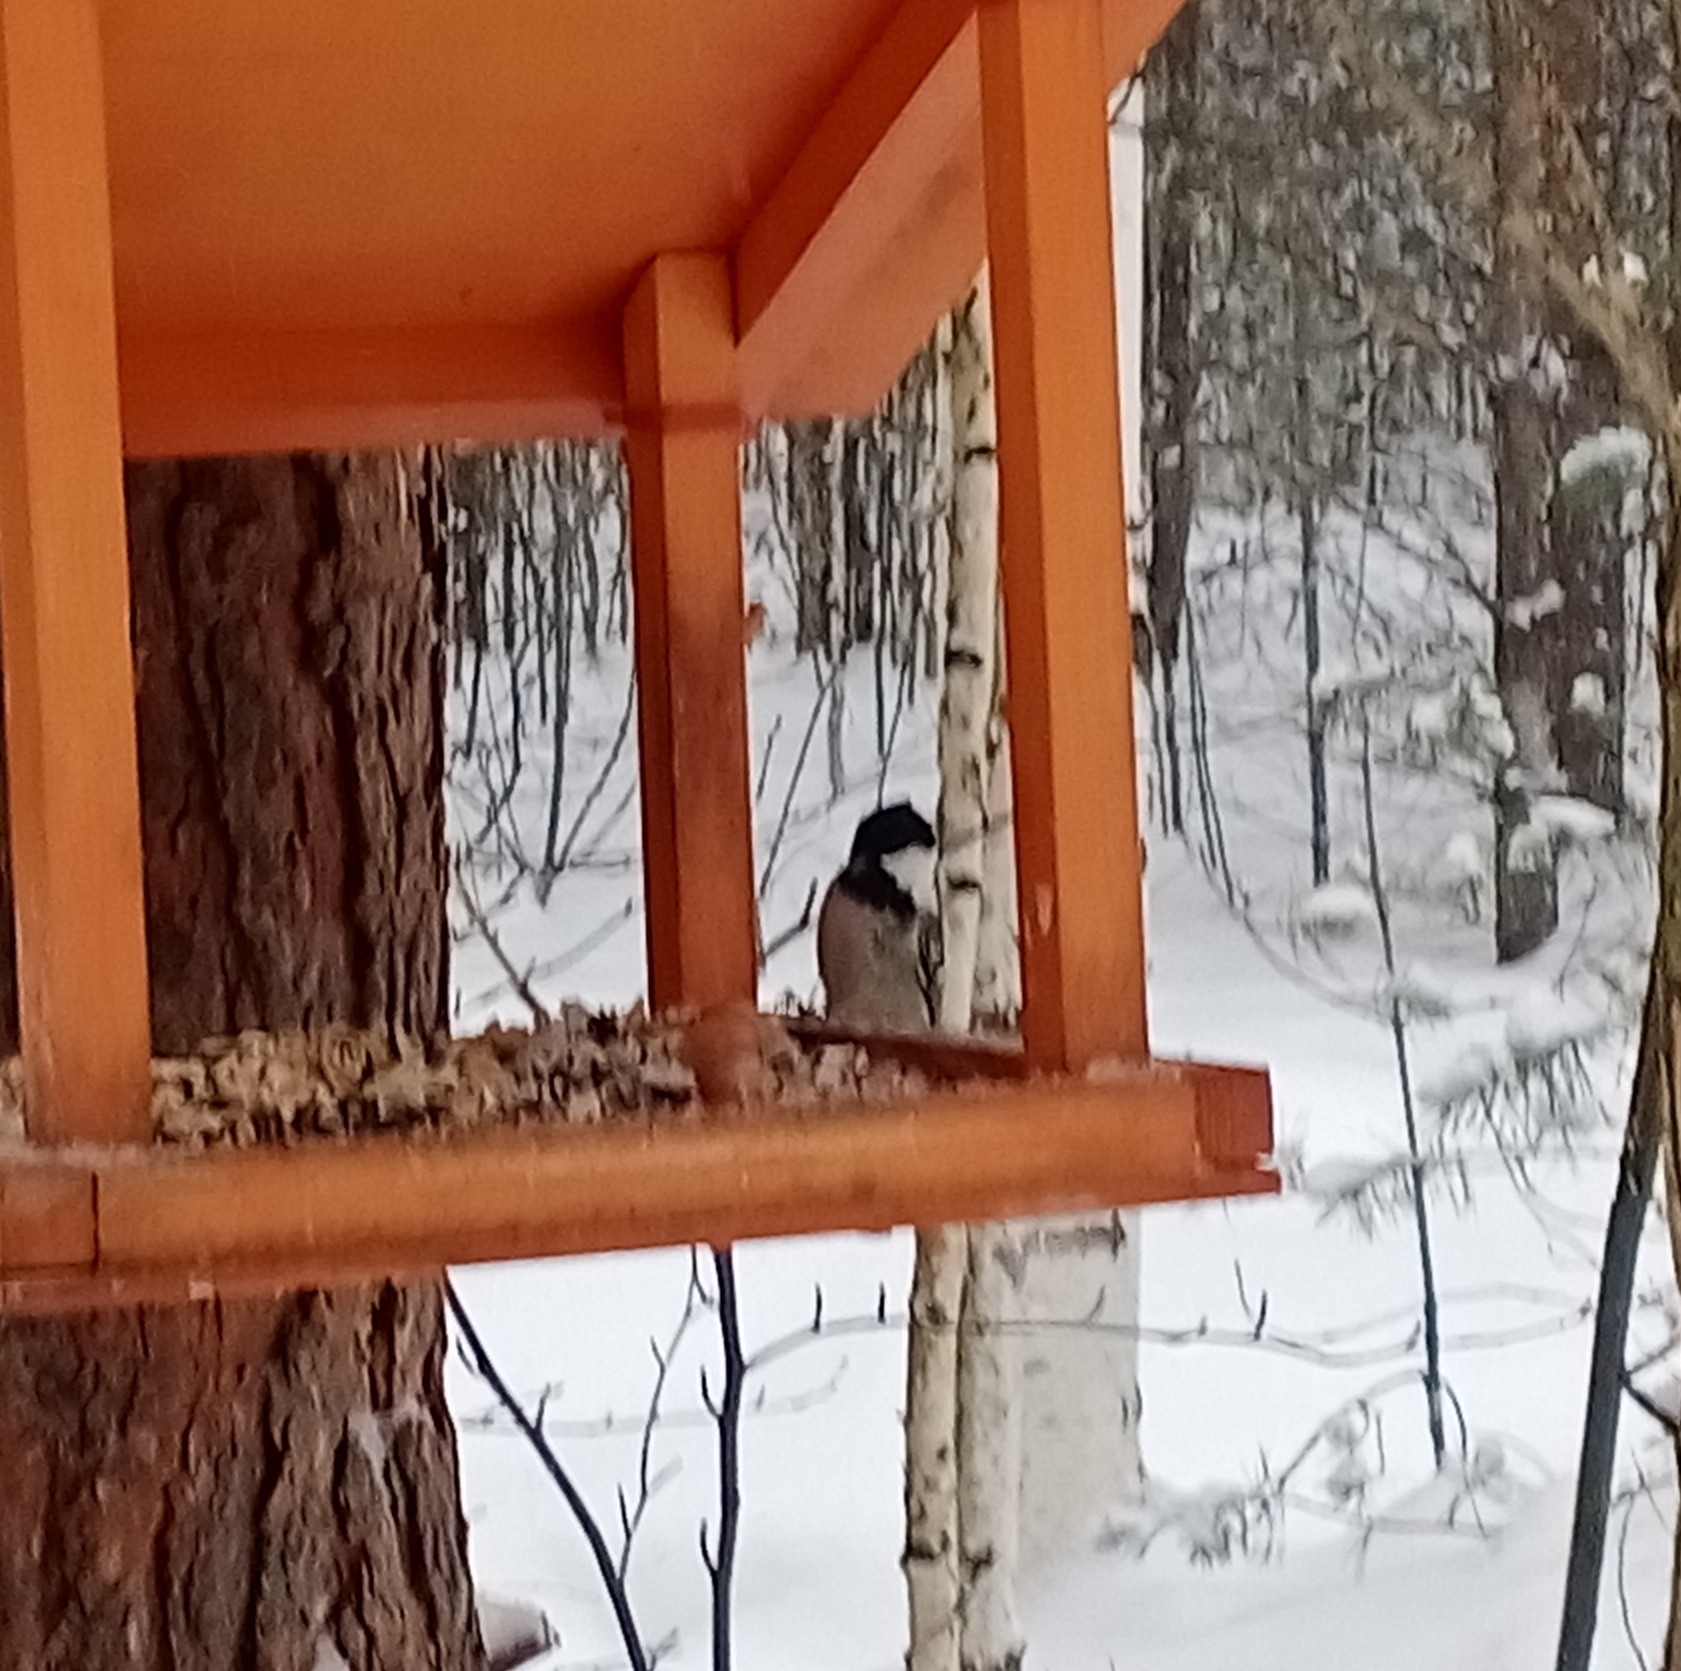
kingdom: Animalia
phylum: Chordata
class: Aves
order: Passeriformes
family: Paridae
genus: Periparus
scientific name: Periparus ater
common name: Coal tit
